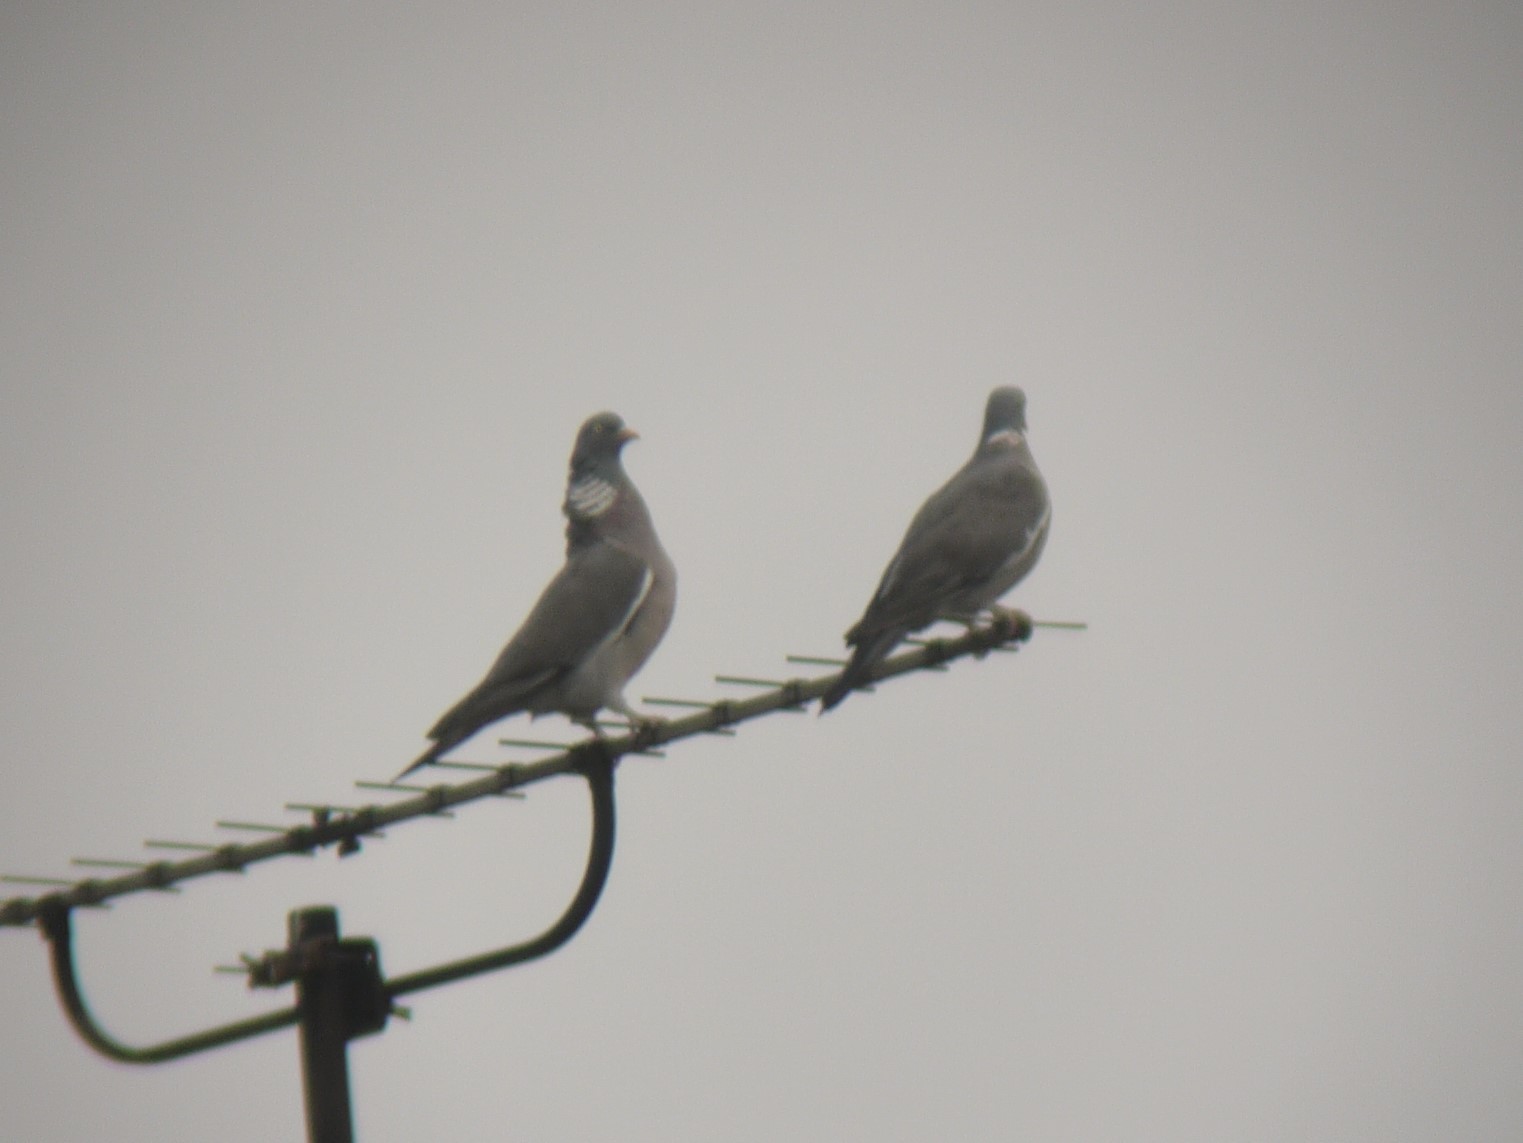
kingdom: Animalia
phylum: Chordata
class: Aves
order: Columbiformes
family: Columbidae
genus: Columba
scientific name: Columba palumbus
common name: Common wood pigeon
